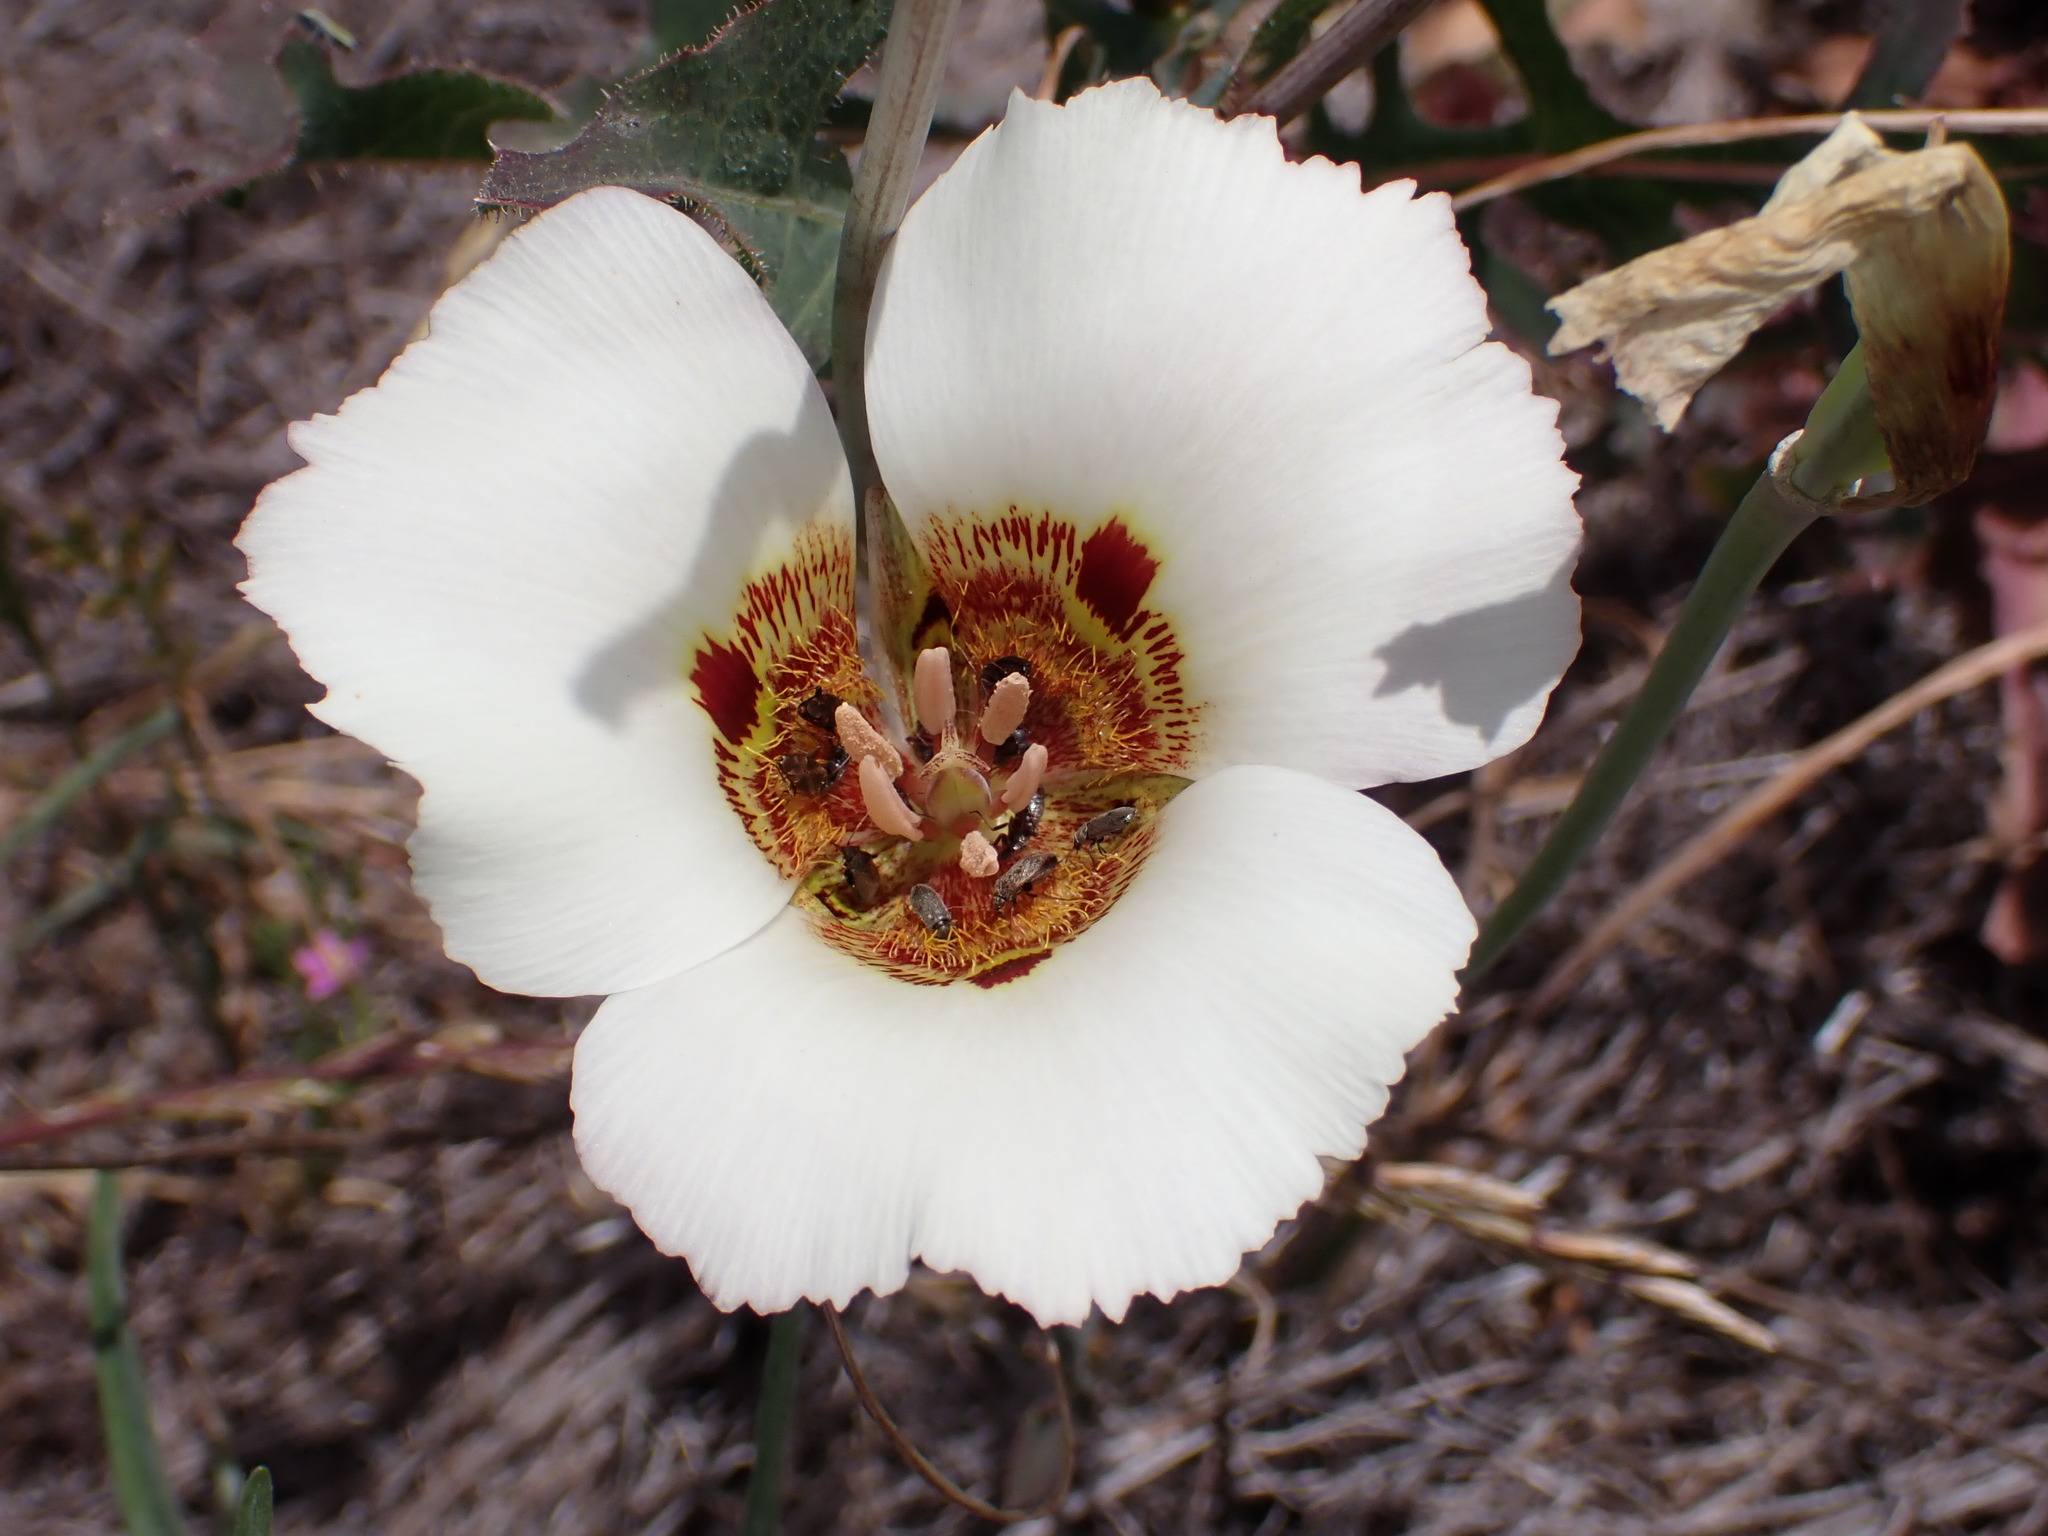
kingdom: Plantae
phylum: Tracheophyta
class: Liliopsida
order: Liliales
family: Liliaceae
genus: Calochortus
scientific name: Calochortus vestae
